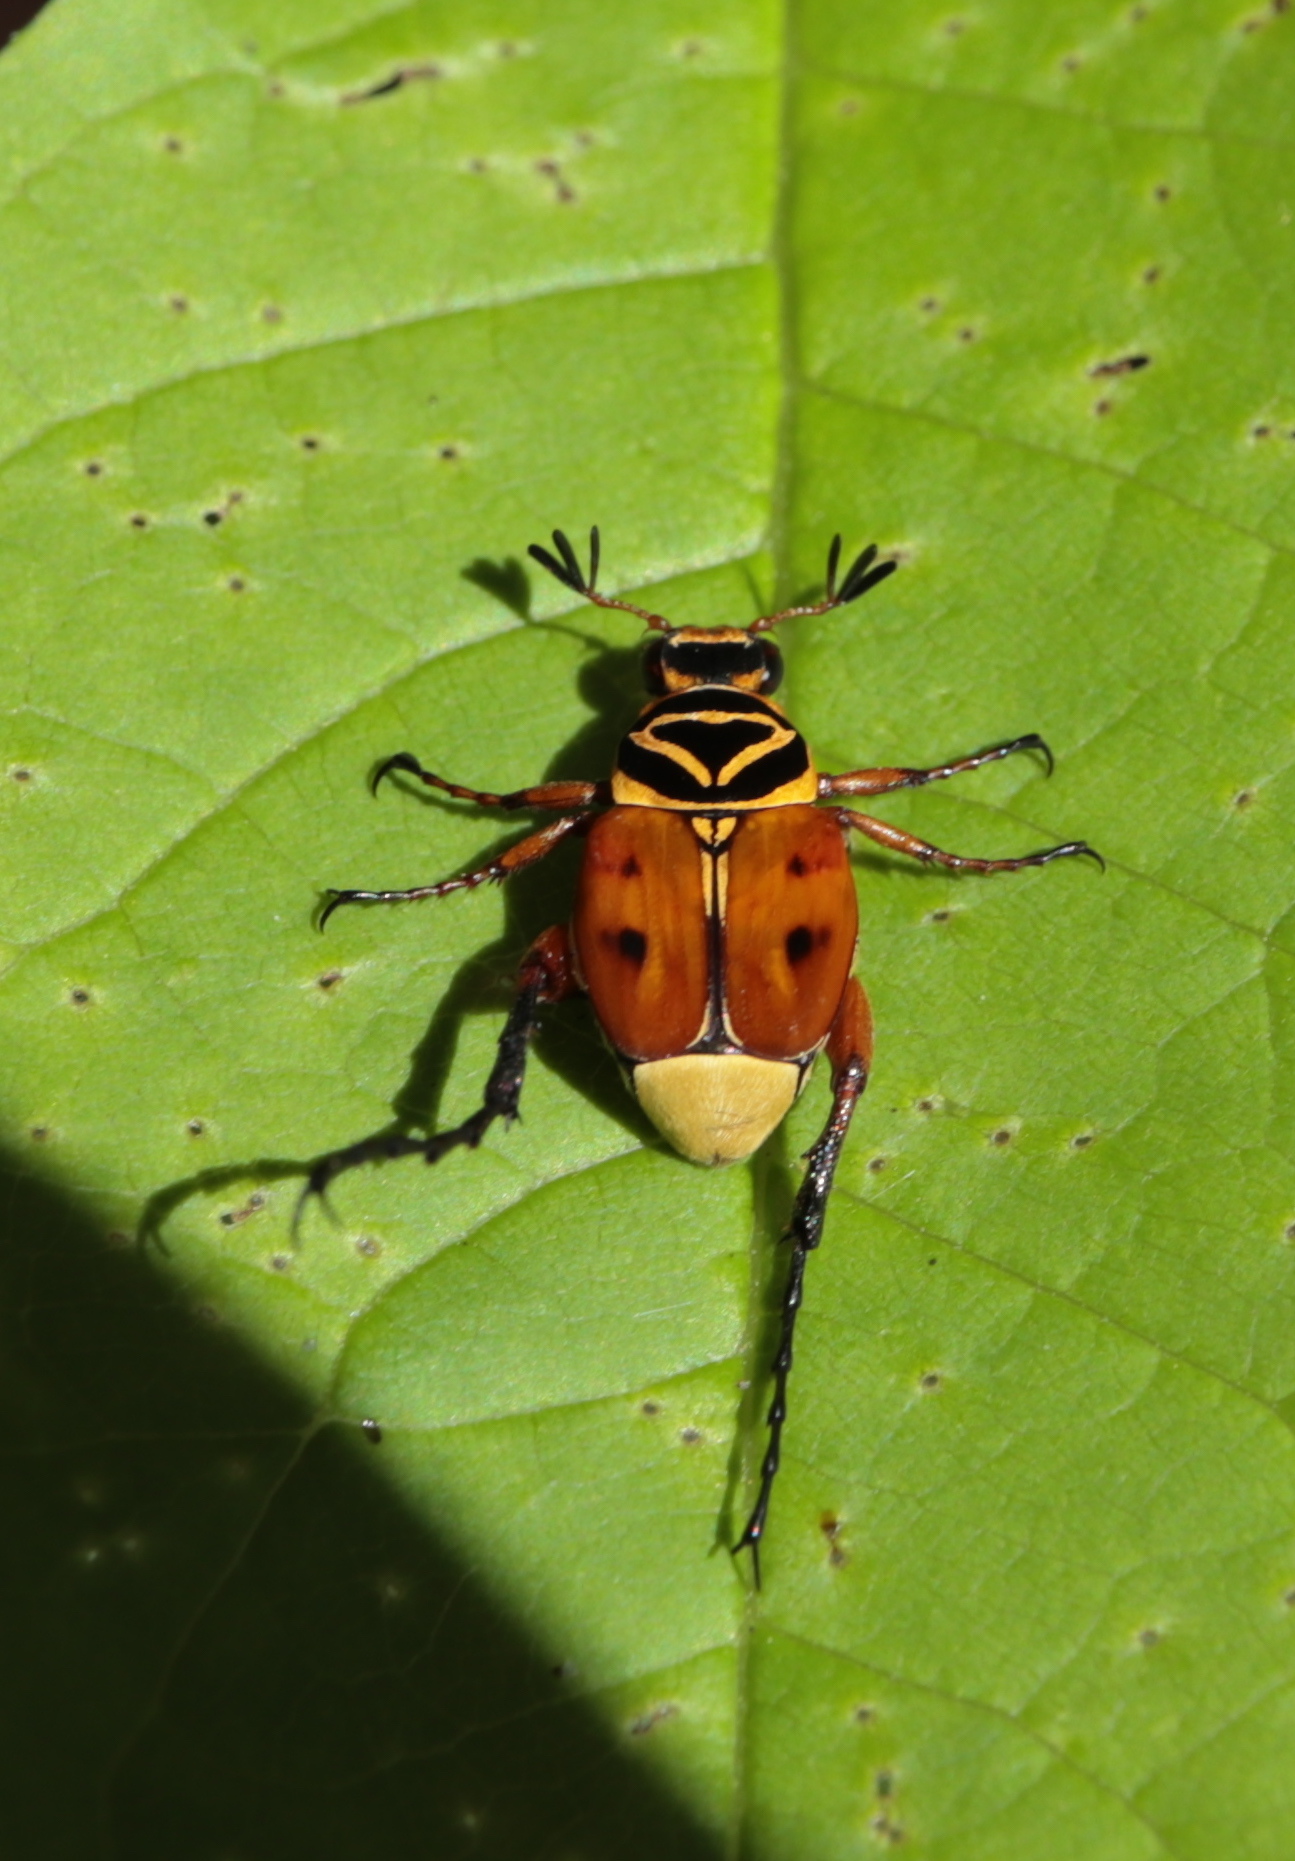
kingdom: Animalia
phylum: Arthropoda
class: Insecta
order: Coleoptera
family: Scarabaeidae
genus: Trigonopeltastes
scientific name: Trigonopeltastes delta
